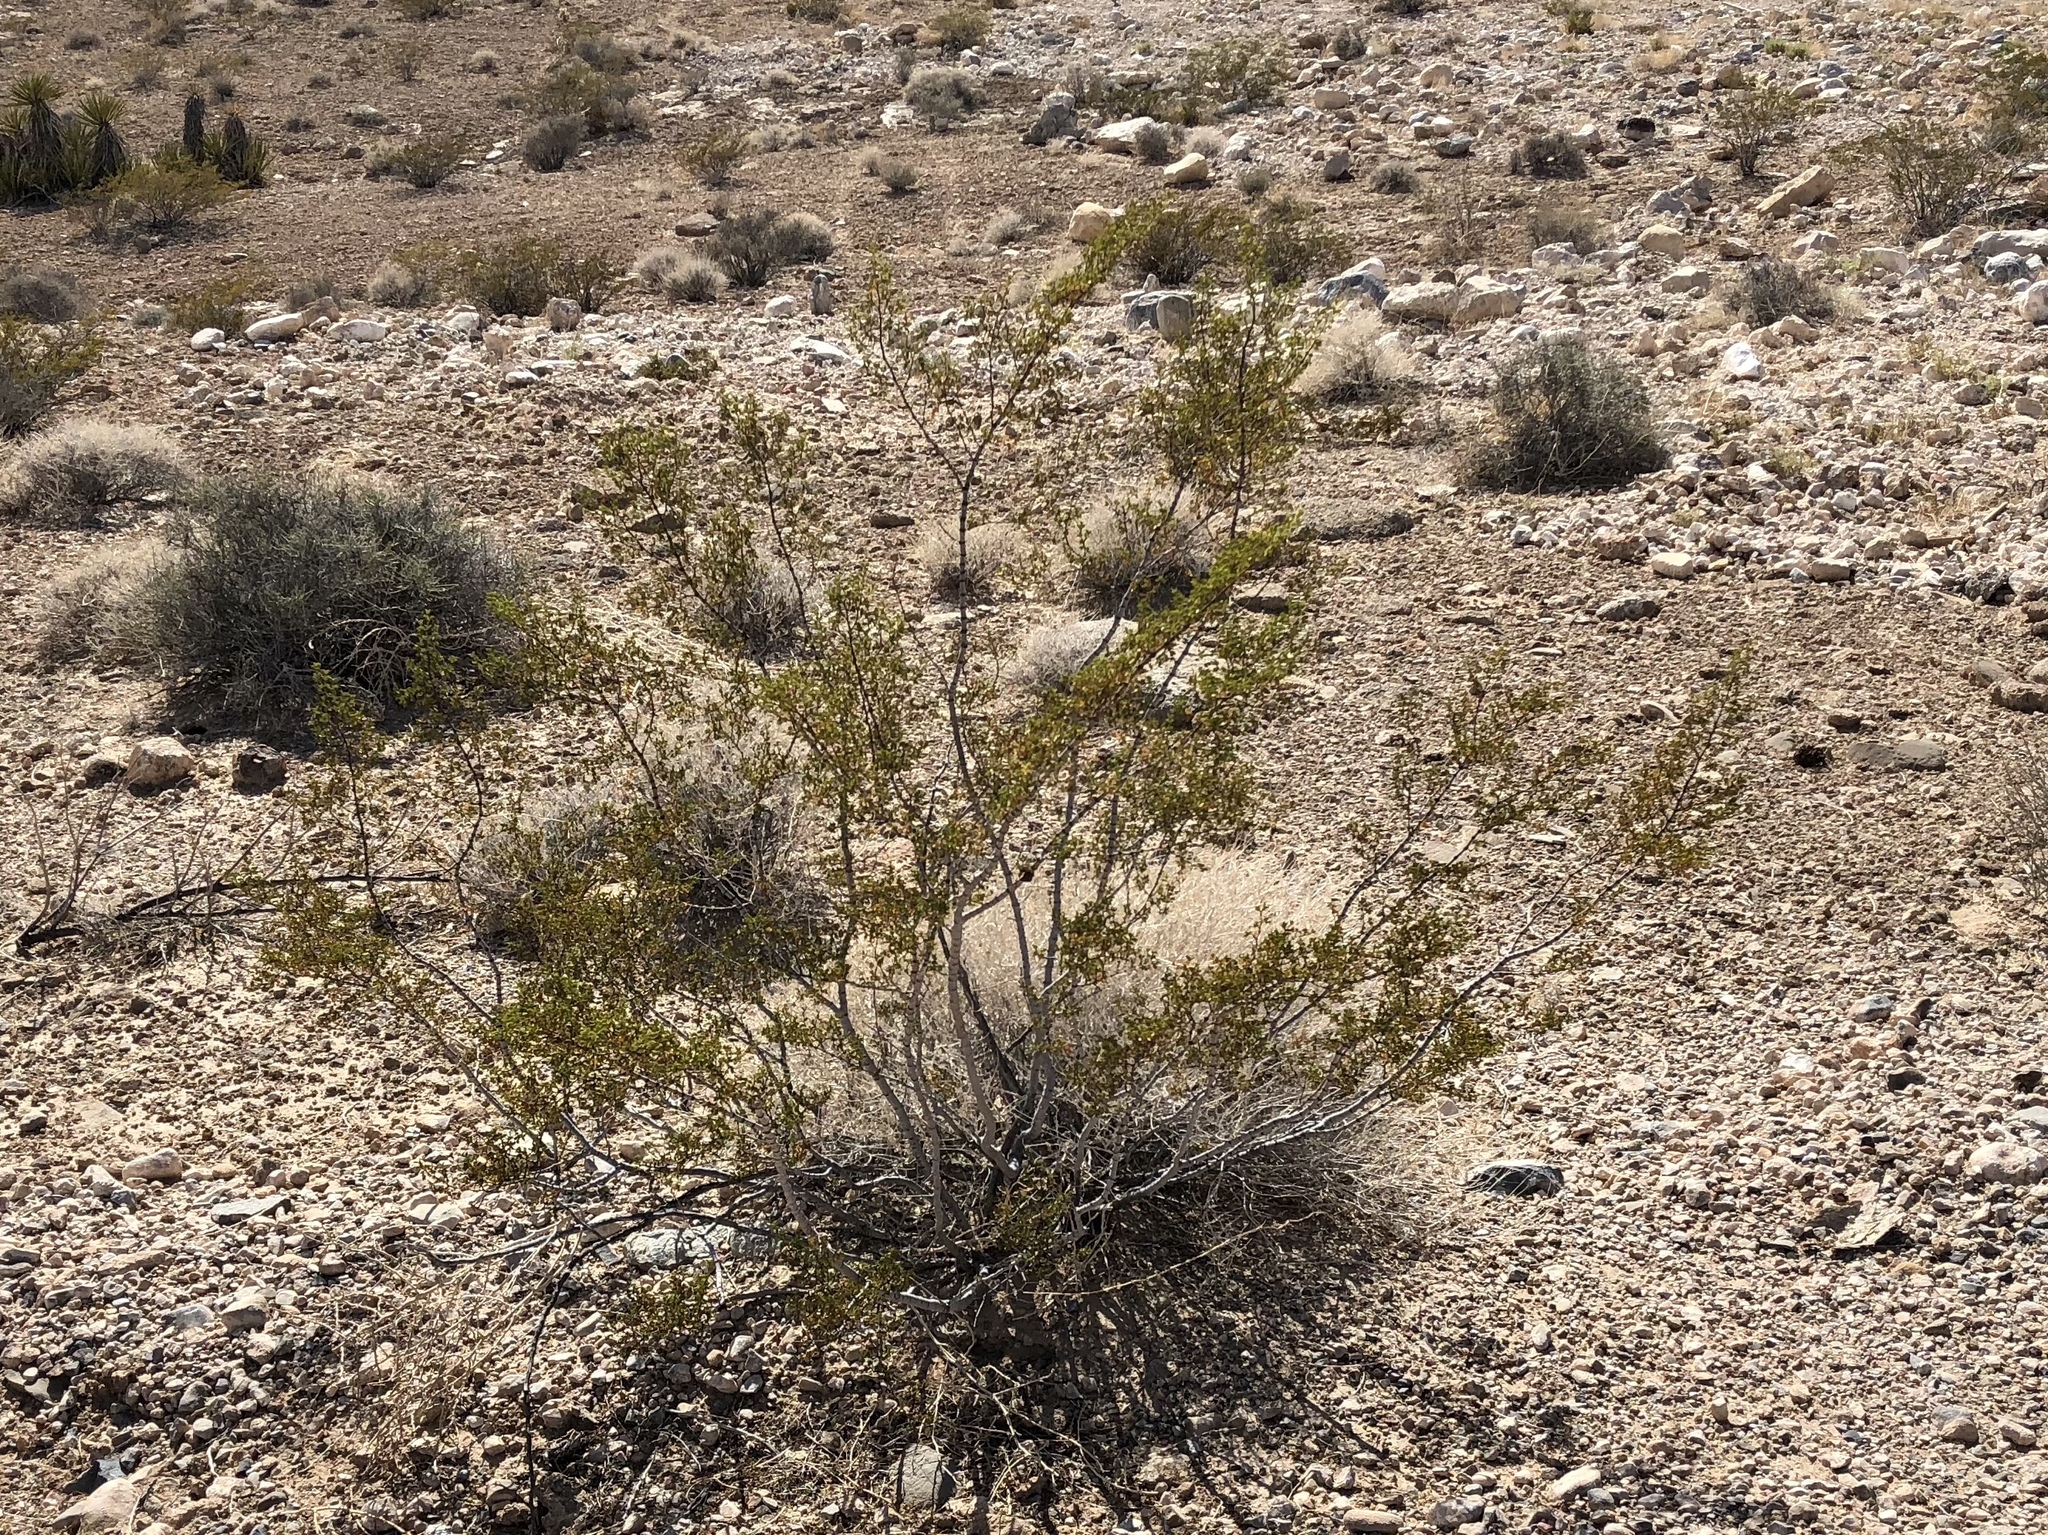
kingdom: Plantae
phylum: Tracheophyta
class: Magnoliopsida
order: Zygophyllales
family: Zygophyllaceae
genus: Larrea
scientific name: Larrea tridentata
